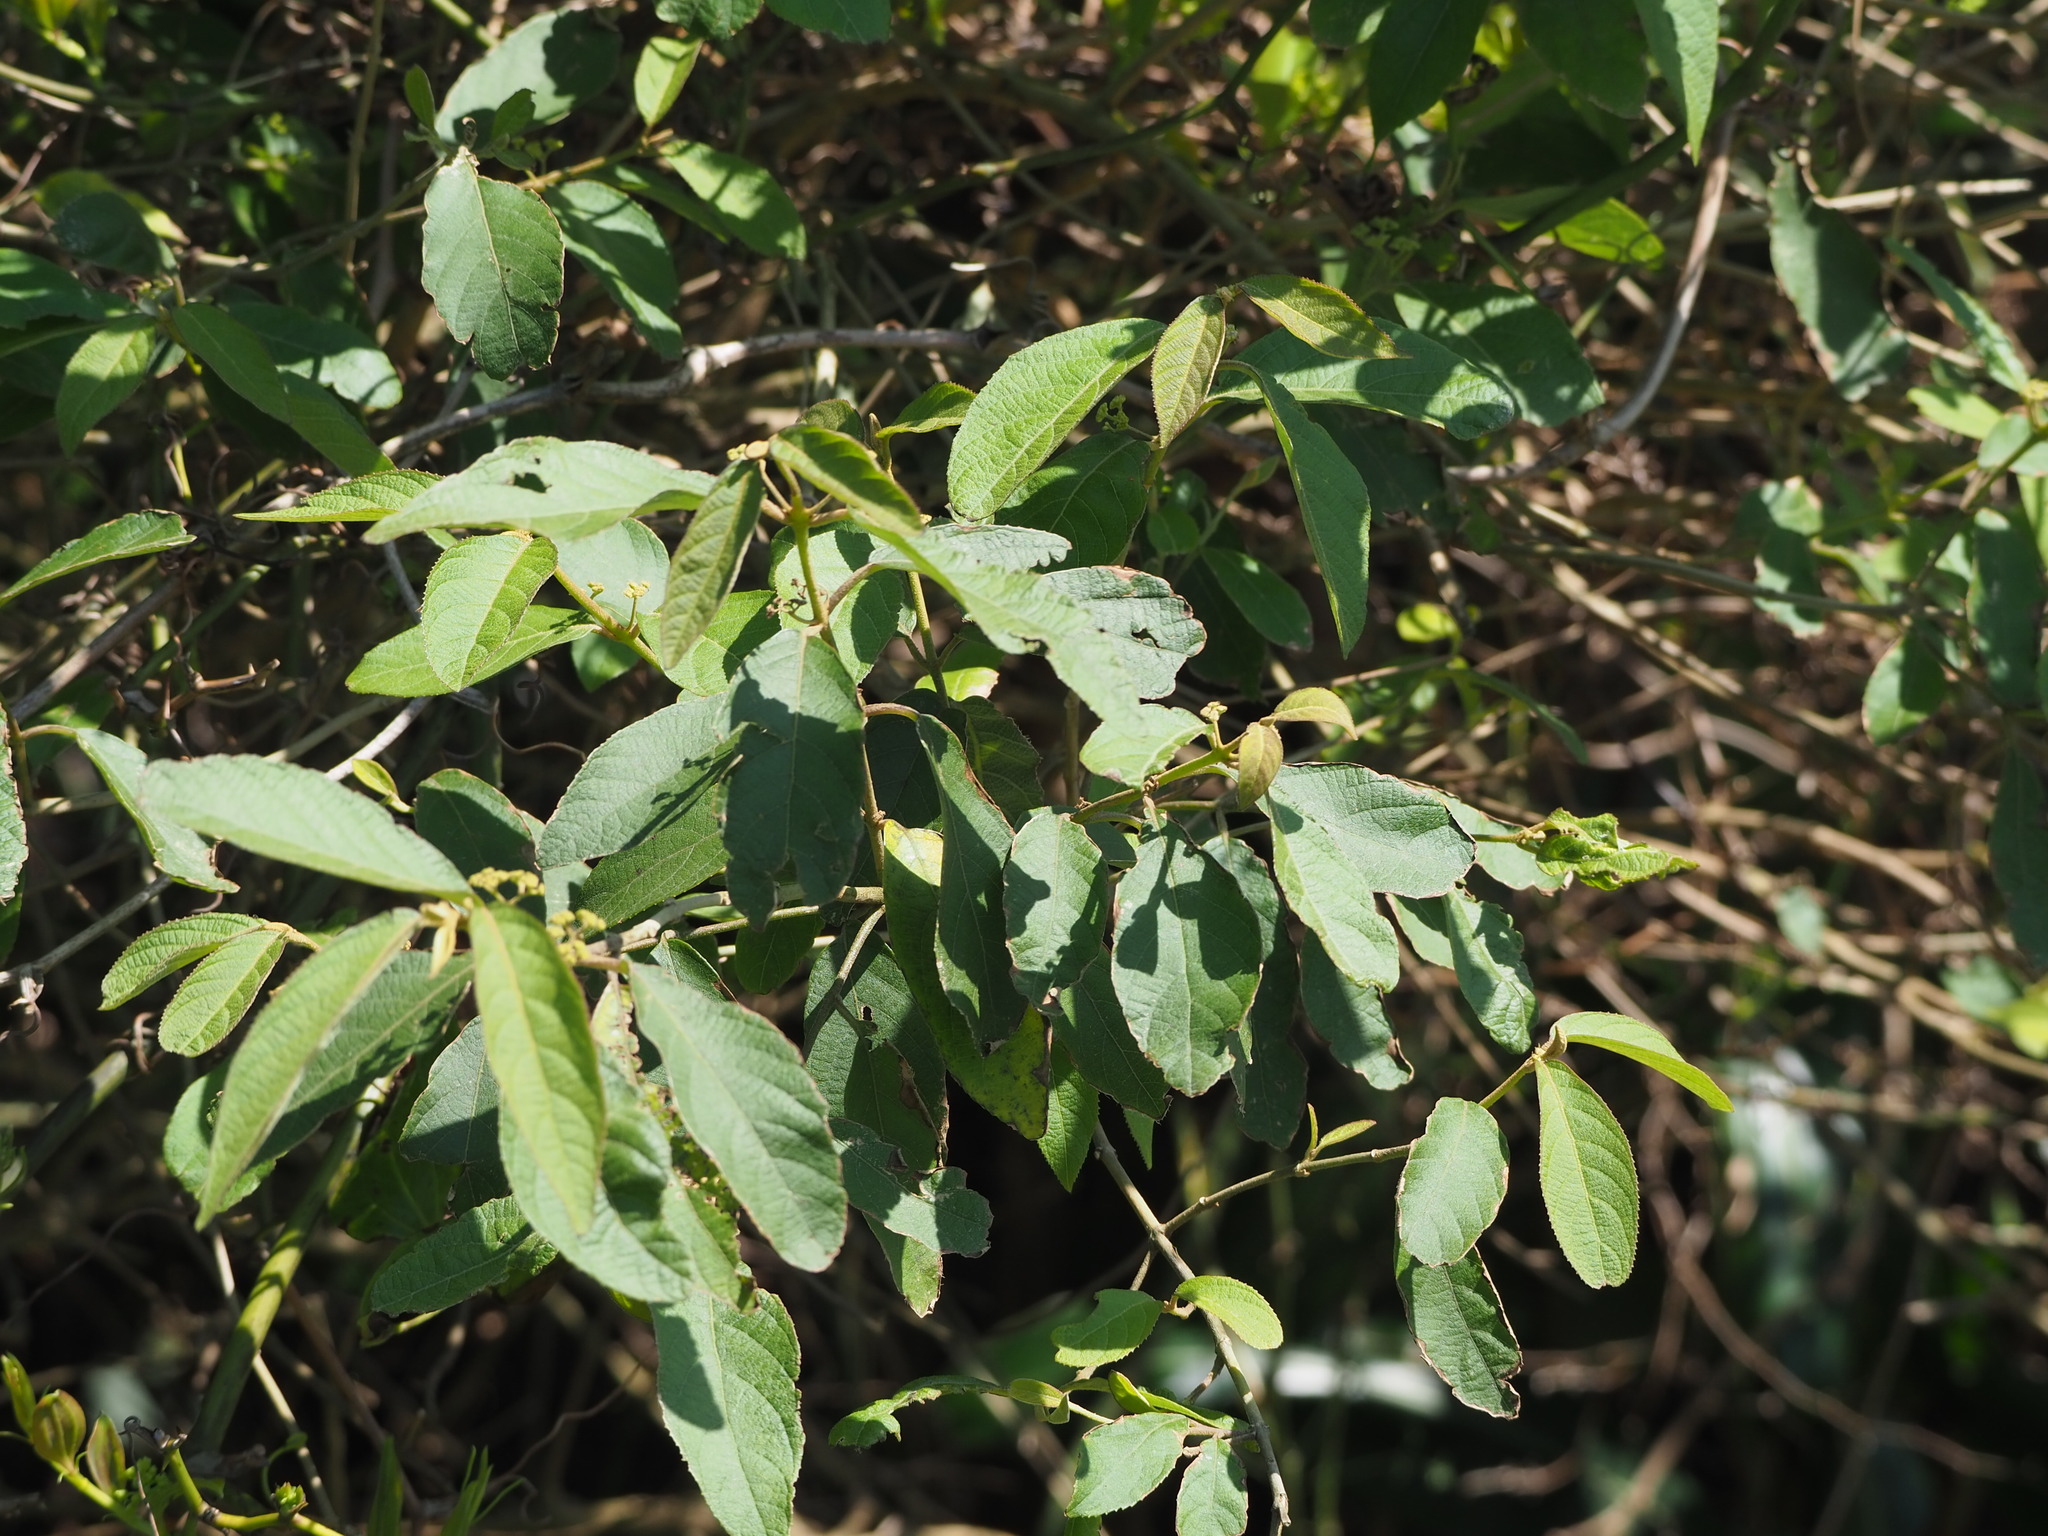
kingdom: Plantae
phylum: Tracheophyta
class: Magnoliopsida
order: Lamiales
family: Lamiaceae
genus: Callicarpa
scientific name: Callicarpa pedunculata
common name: Velvetleaf
